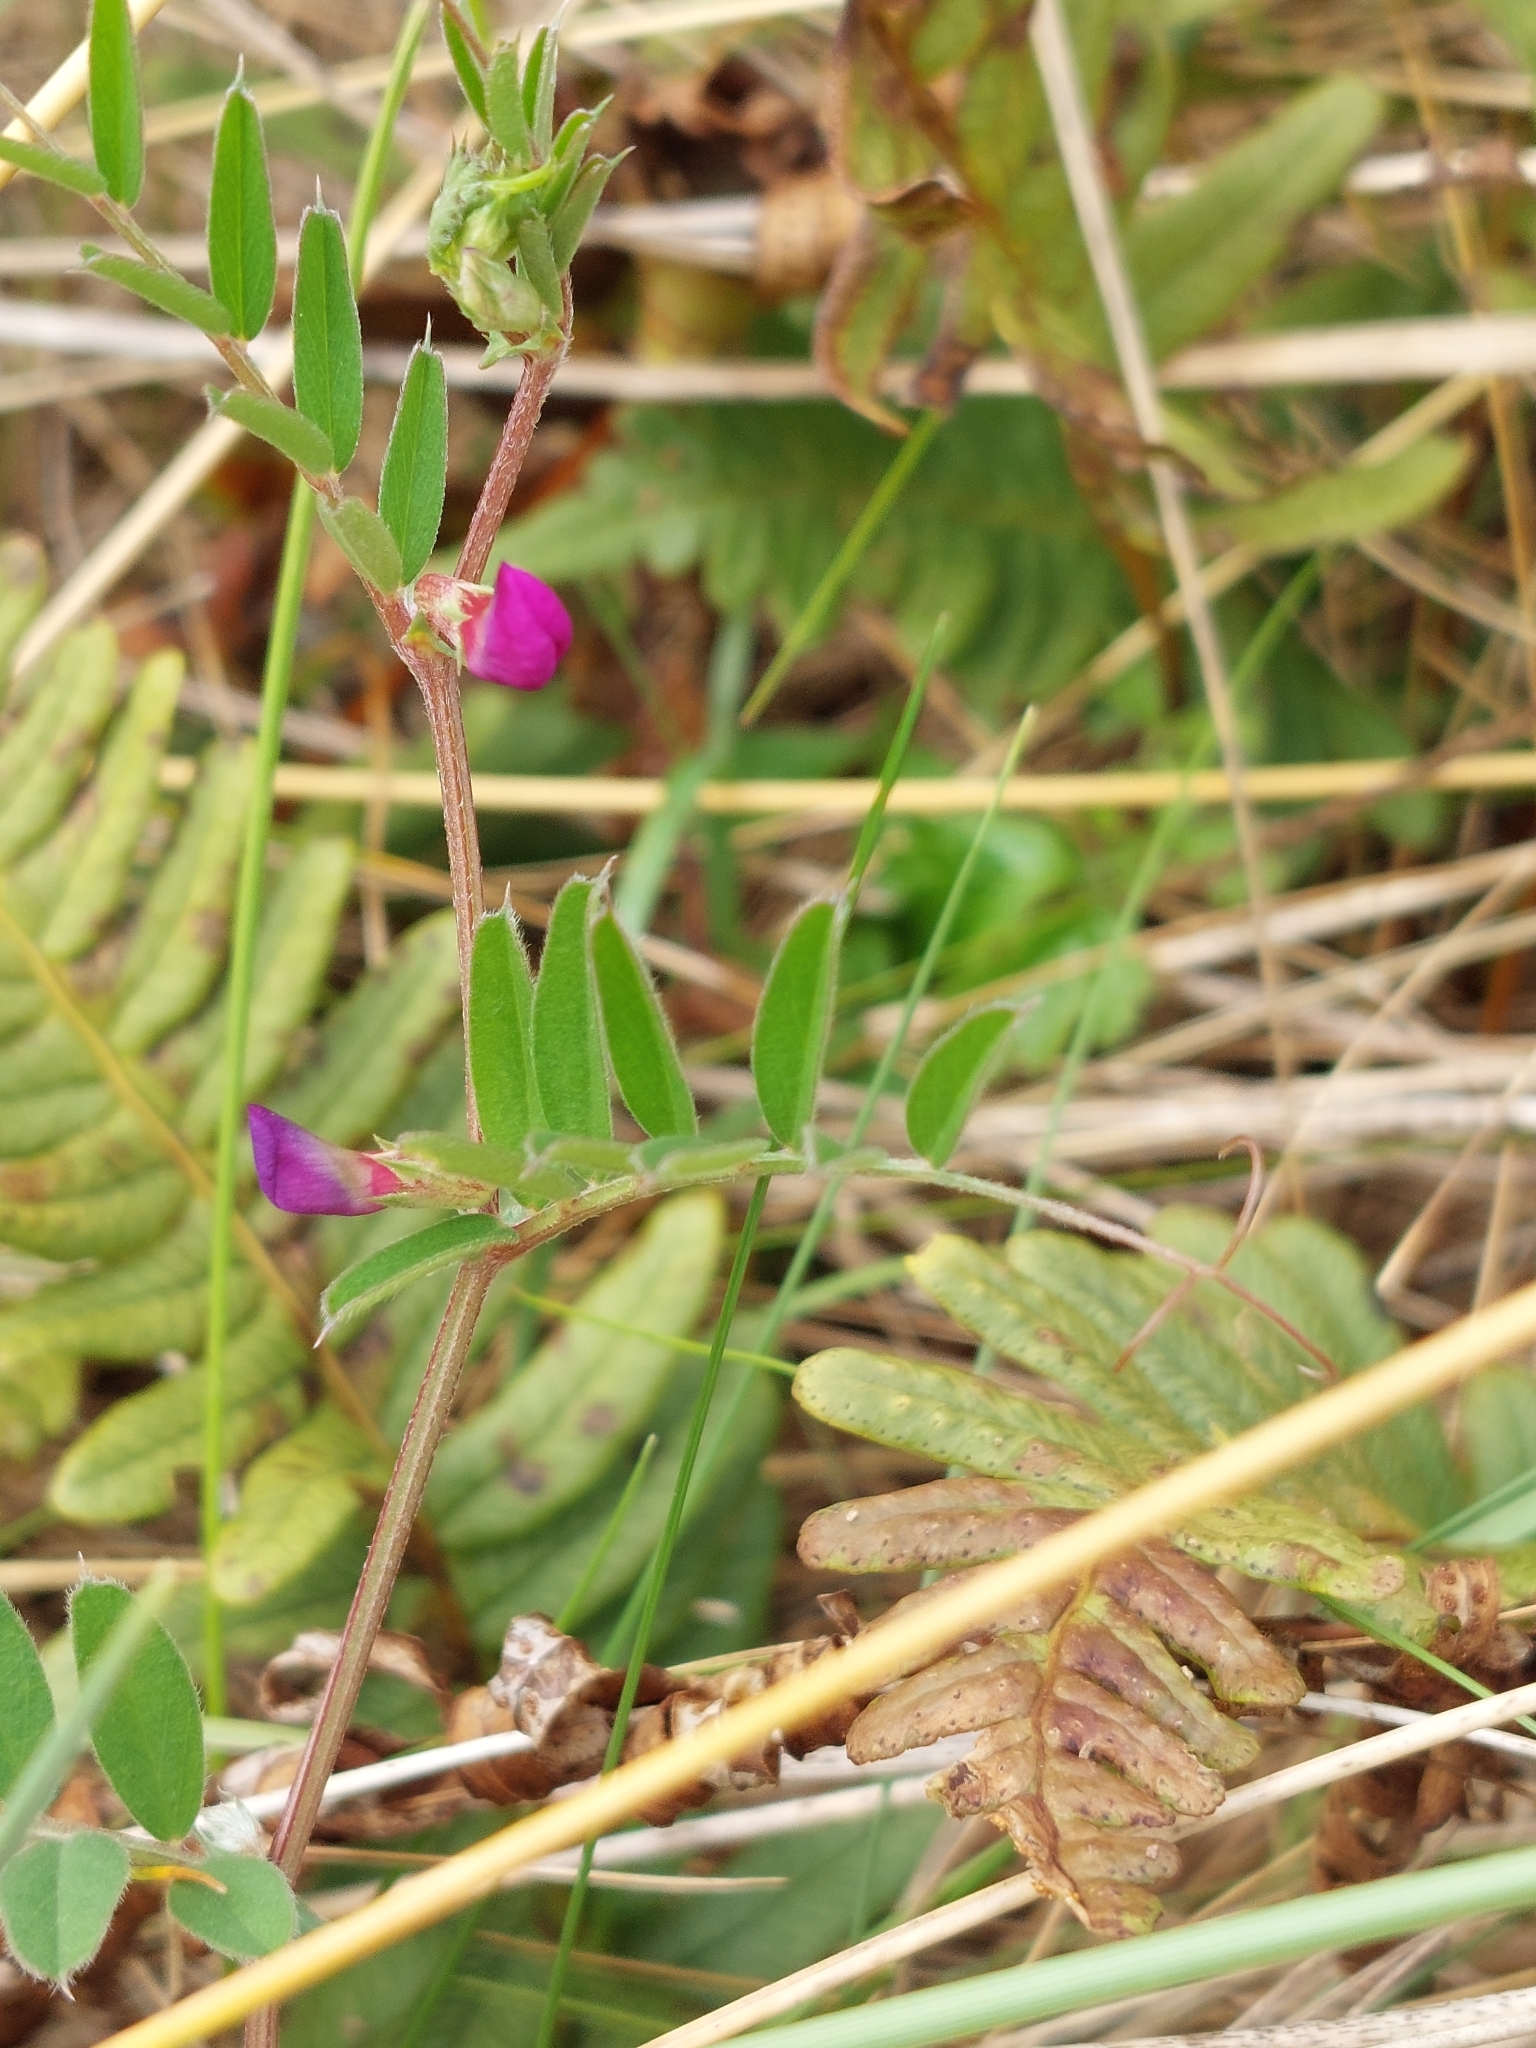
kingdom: Plantae
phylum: Tracheophyta
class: Magnoliopsida
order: Fabales
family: Fabaceae
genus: Vicia
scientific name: Vicia sativa
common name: Garden vetch
